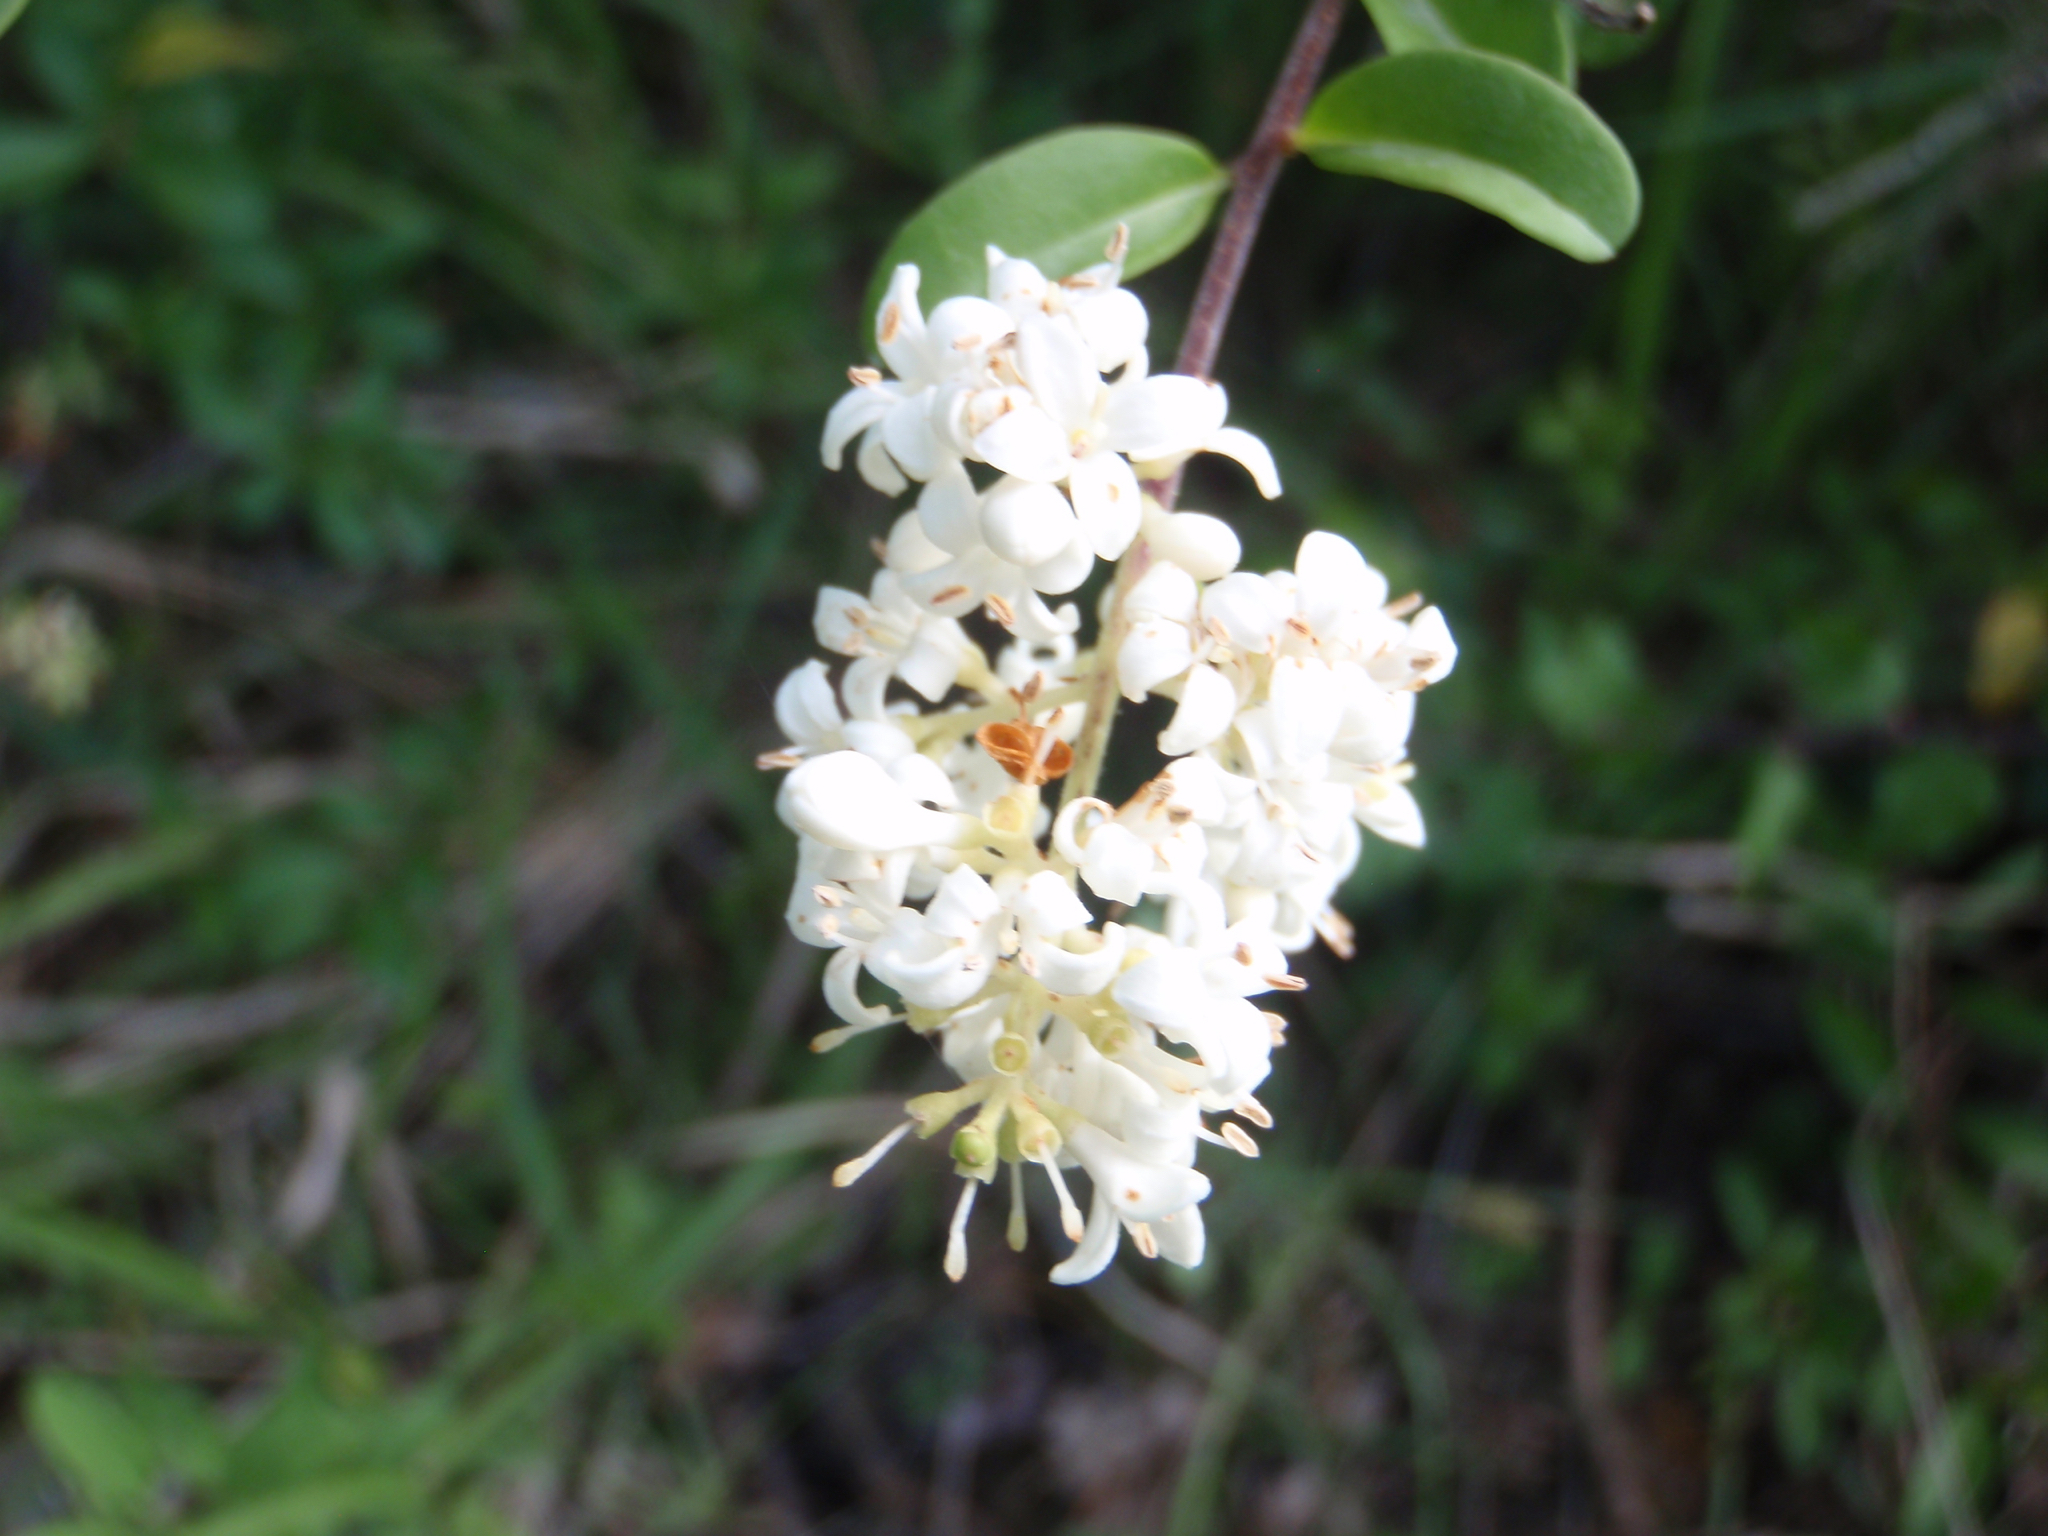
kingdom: Plantae
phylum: Tracheophyta
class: Magnoliopsida
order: Lamiales
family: Oleaceae
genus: Ligustrum
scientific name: Ligustrum vulgare
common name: Wild privet
